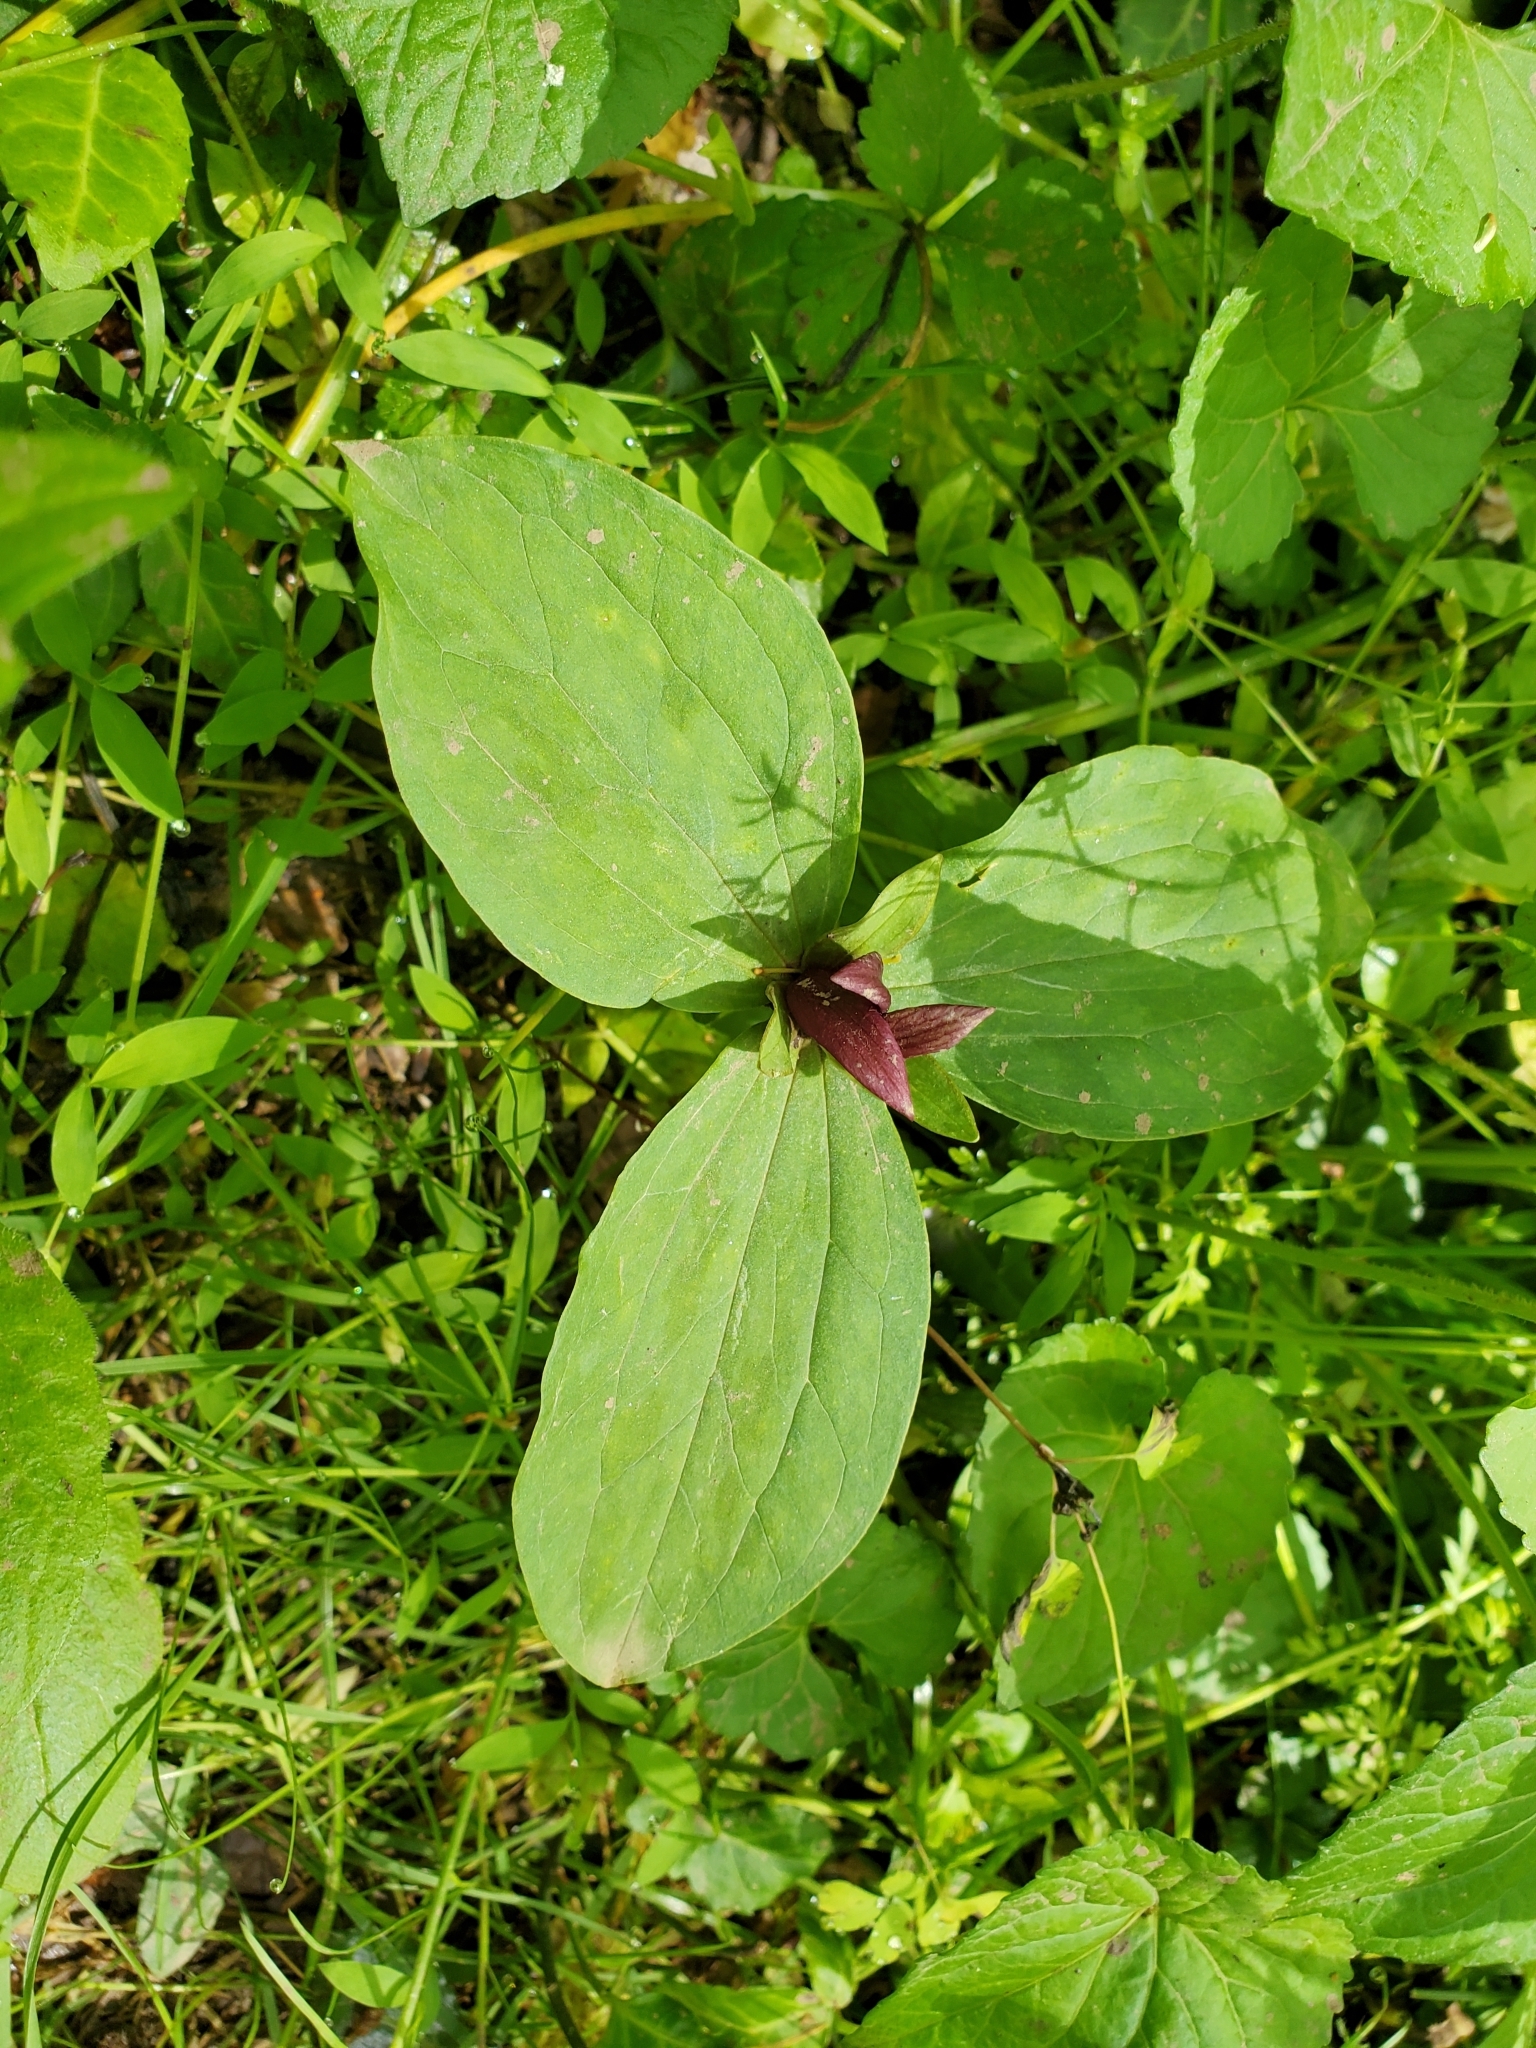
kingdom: Plantae
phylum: Tracheophyta
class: Liliopsida
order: Liliales
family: Melanthiaceae
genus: Trillium
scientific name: Trillium sessile
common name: Sessile trillium
